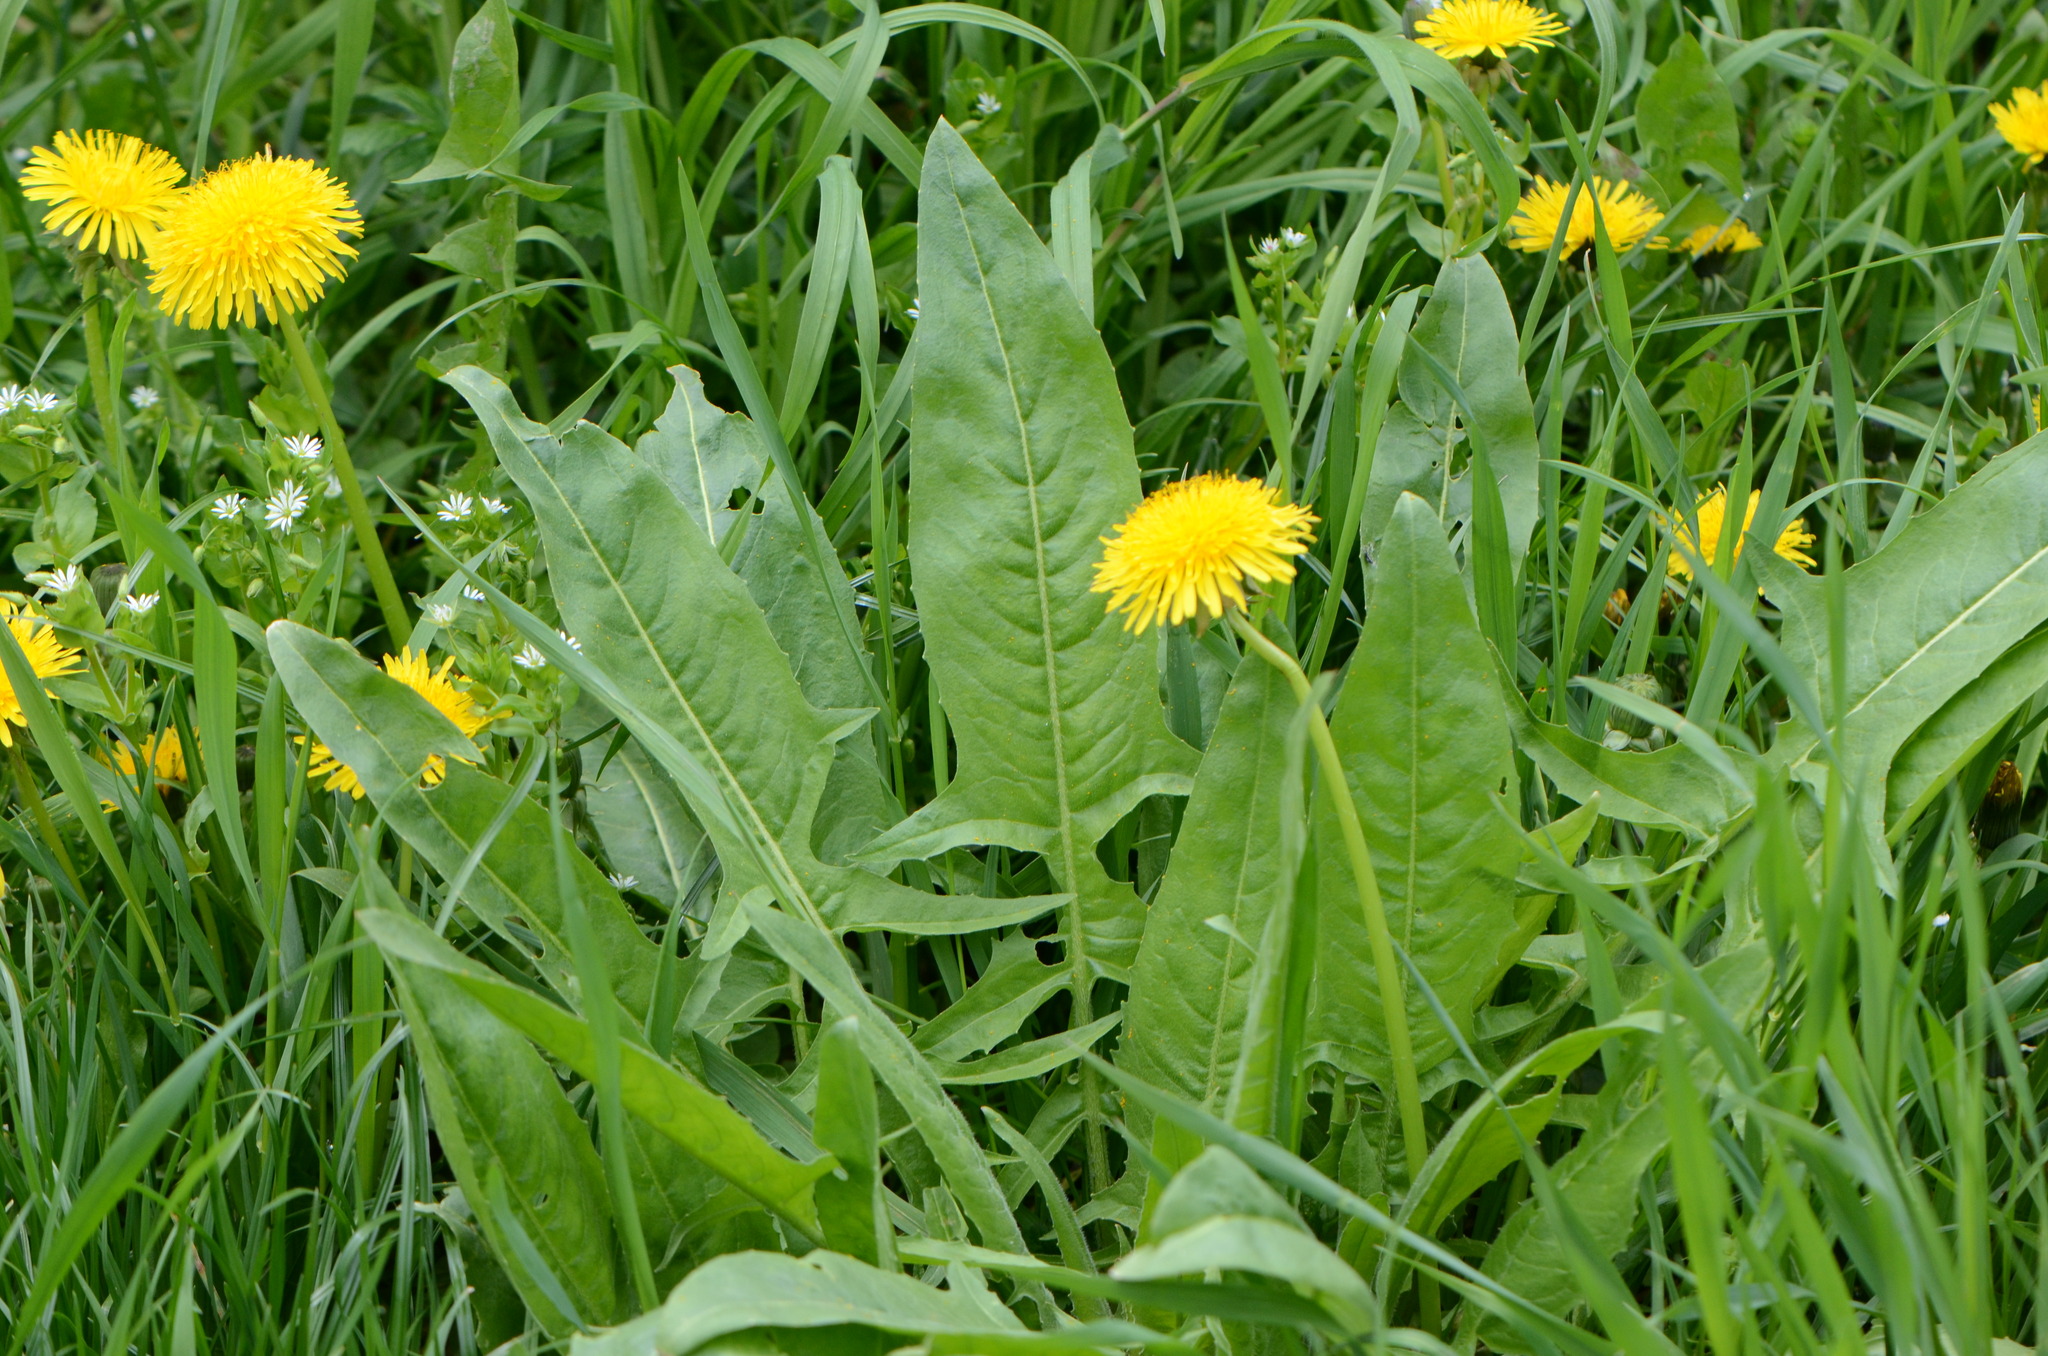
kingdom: Plantae
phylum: Tracheophyta
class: Magnoliopsida
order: Brassicales
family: Brassicaceae
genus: Bunias
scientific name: Bunias orientalis
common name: Warty-cabbage
